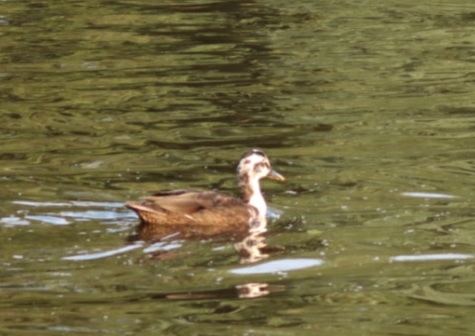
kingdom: Animalia
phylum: Chordata
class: Aves
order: Anseriformes
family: Anatidae
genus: Anas
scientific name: Anas platyrhynchos
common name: Mallard
